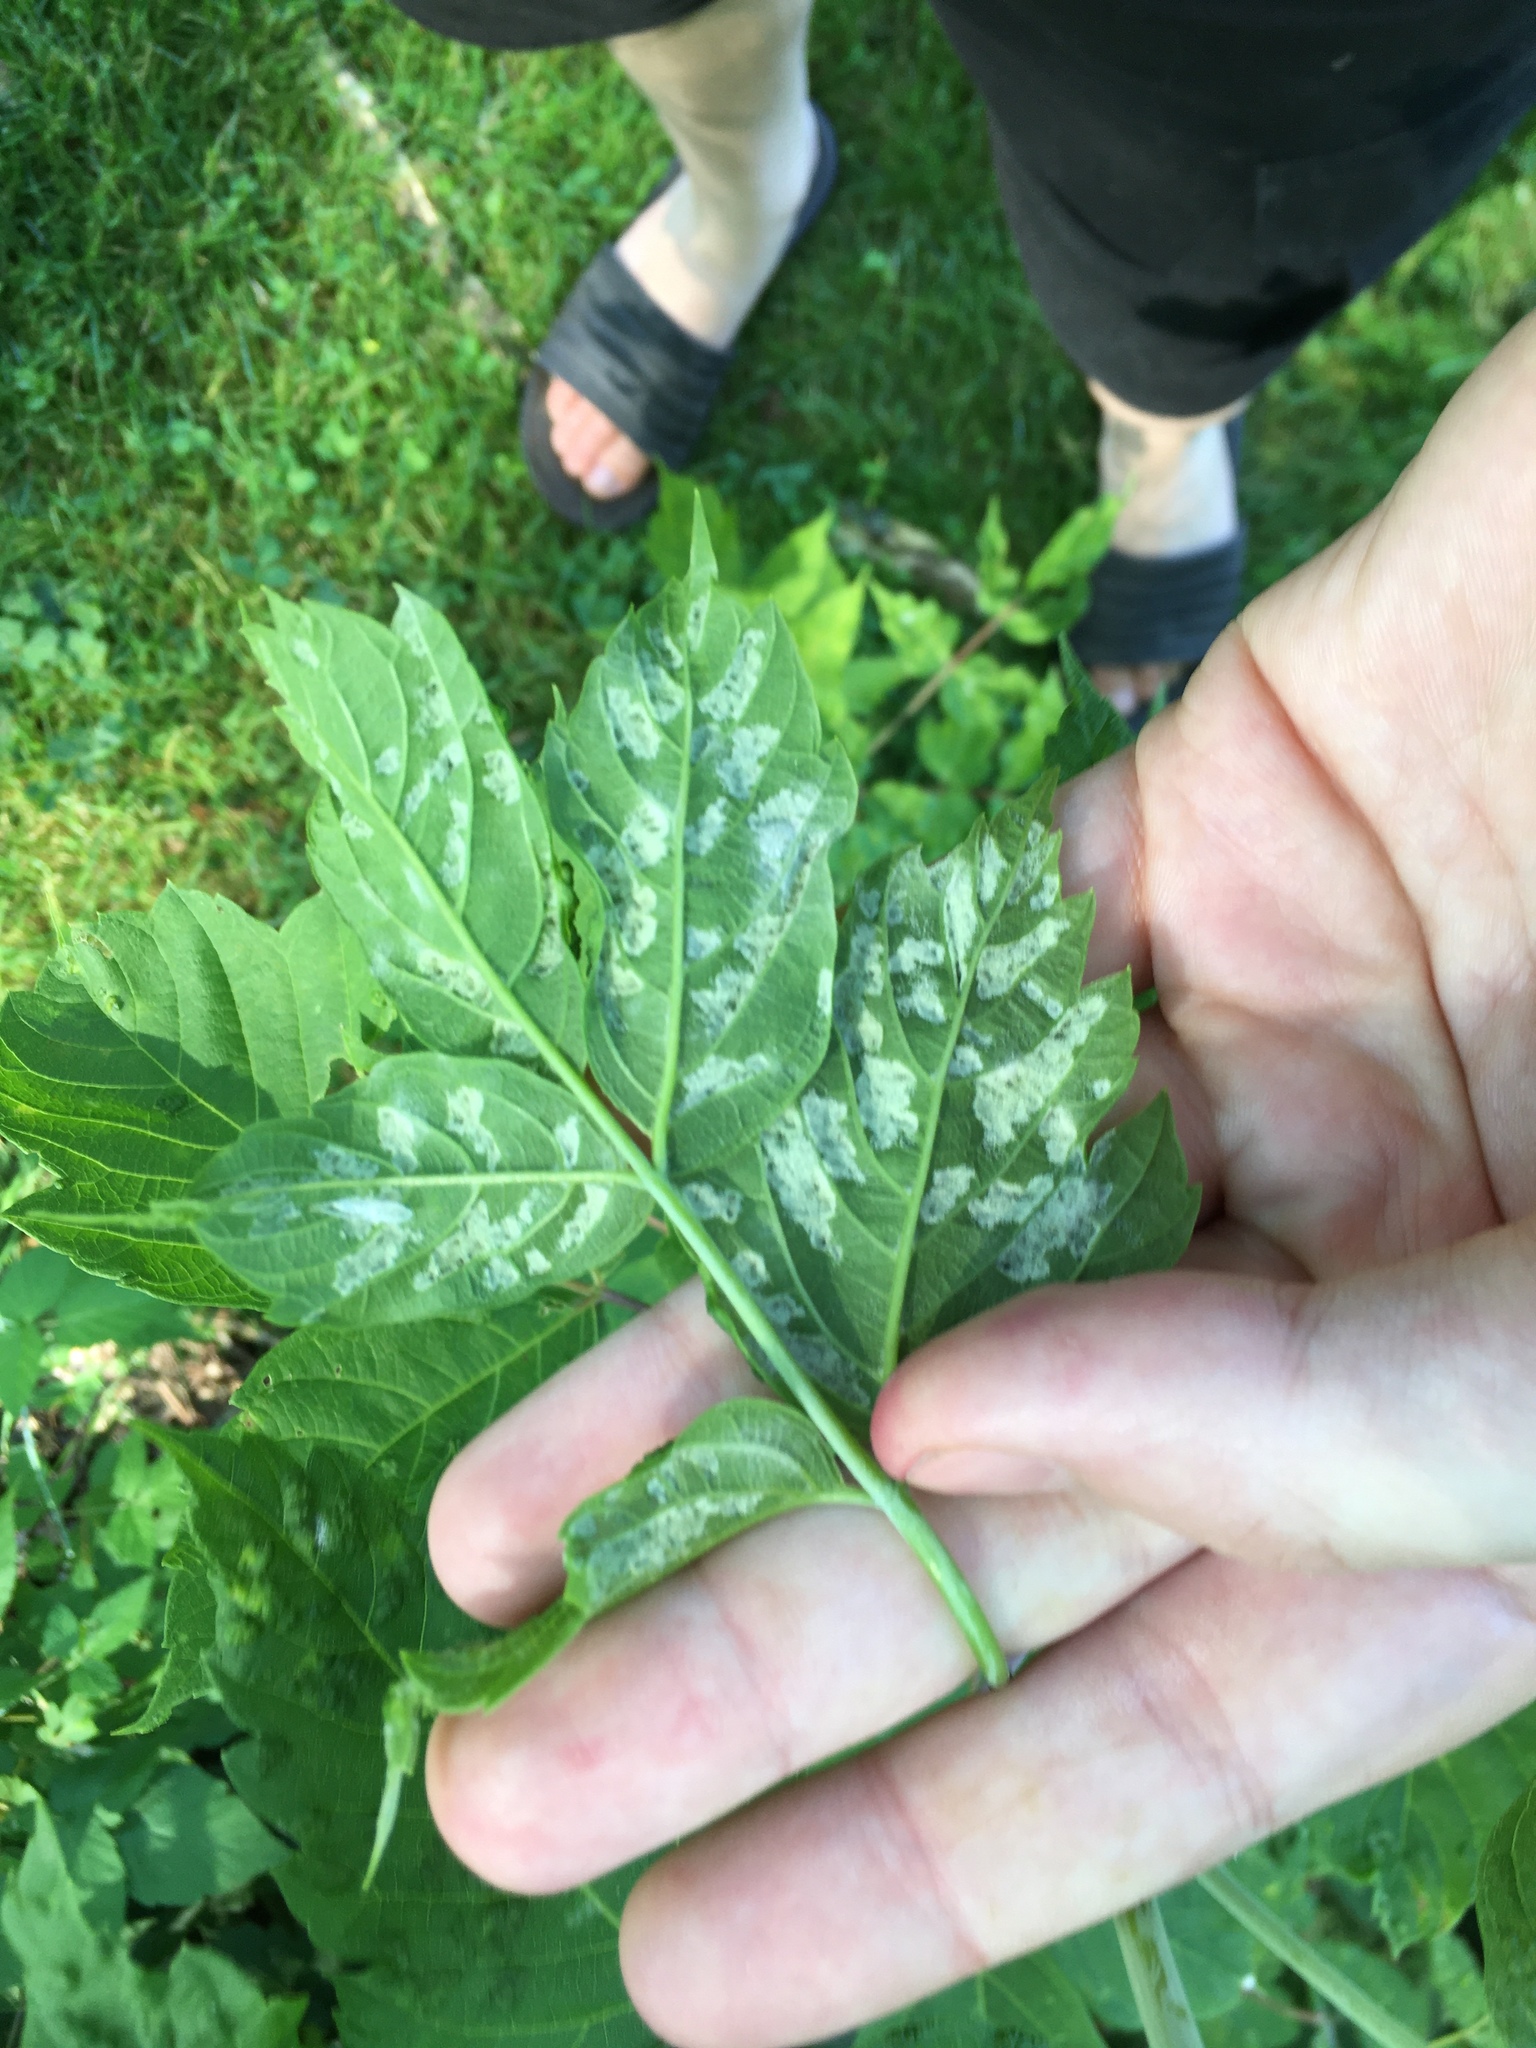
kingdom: Animalia
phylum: Arthropoda
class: Arachnida
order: Trombidiformes
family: Eriophyidae
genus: Aceria
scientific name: Aceria
